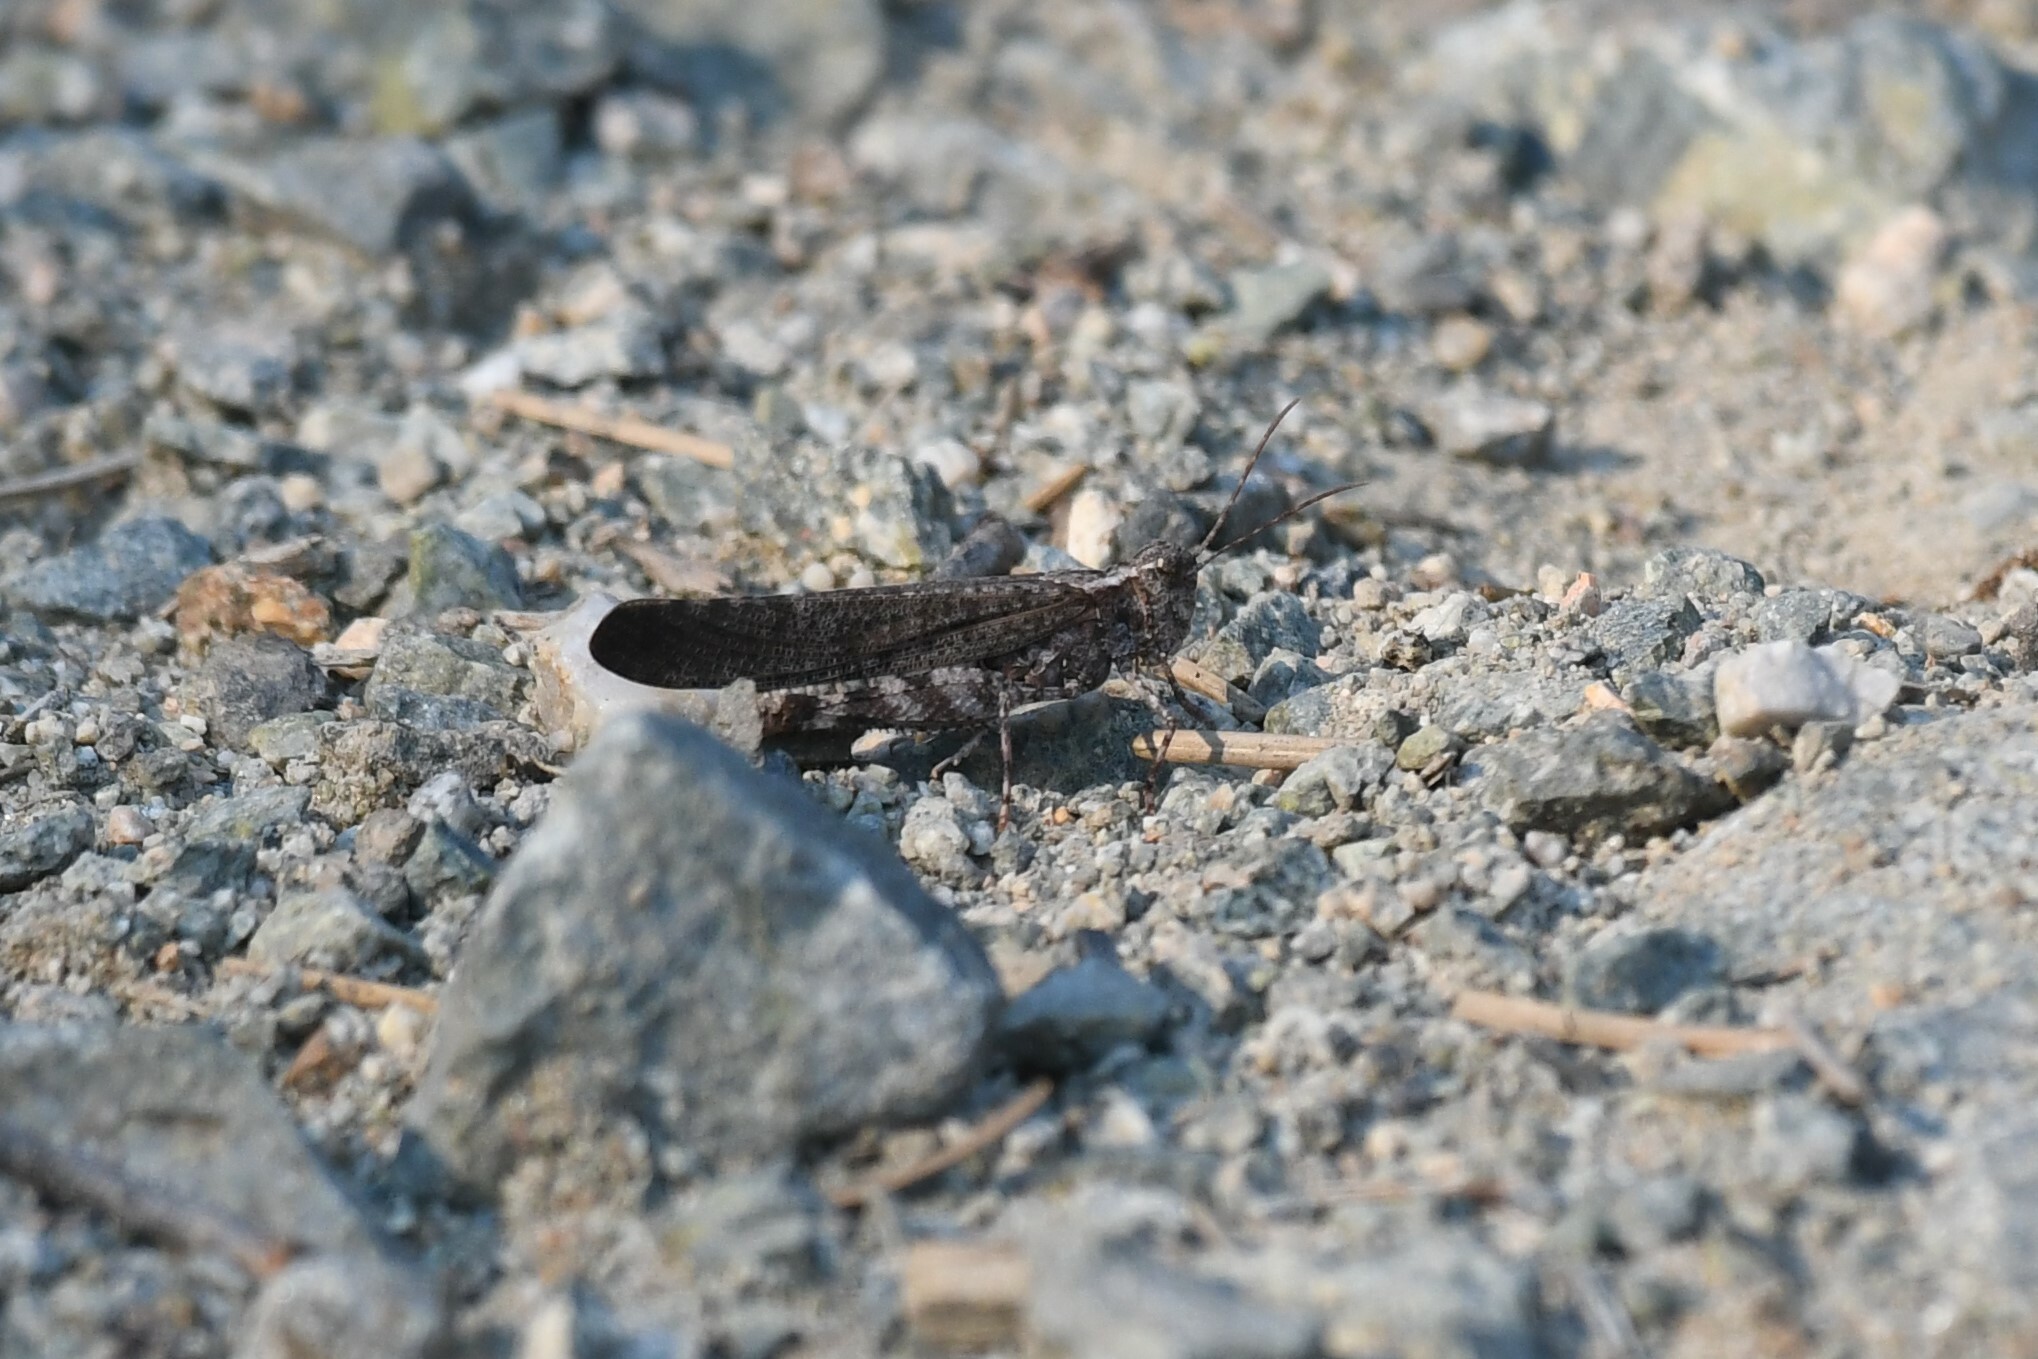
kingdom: Animalia
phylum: Arthropoda
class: Insecta
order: Orthoptera
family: Acrididae
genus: Trimerotropis
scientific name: Trimerotropis verruculata
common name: Crackling forest grasshopper
